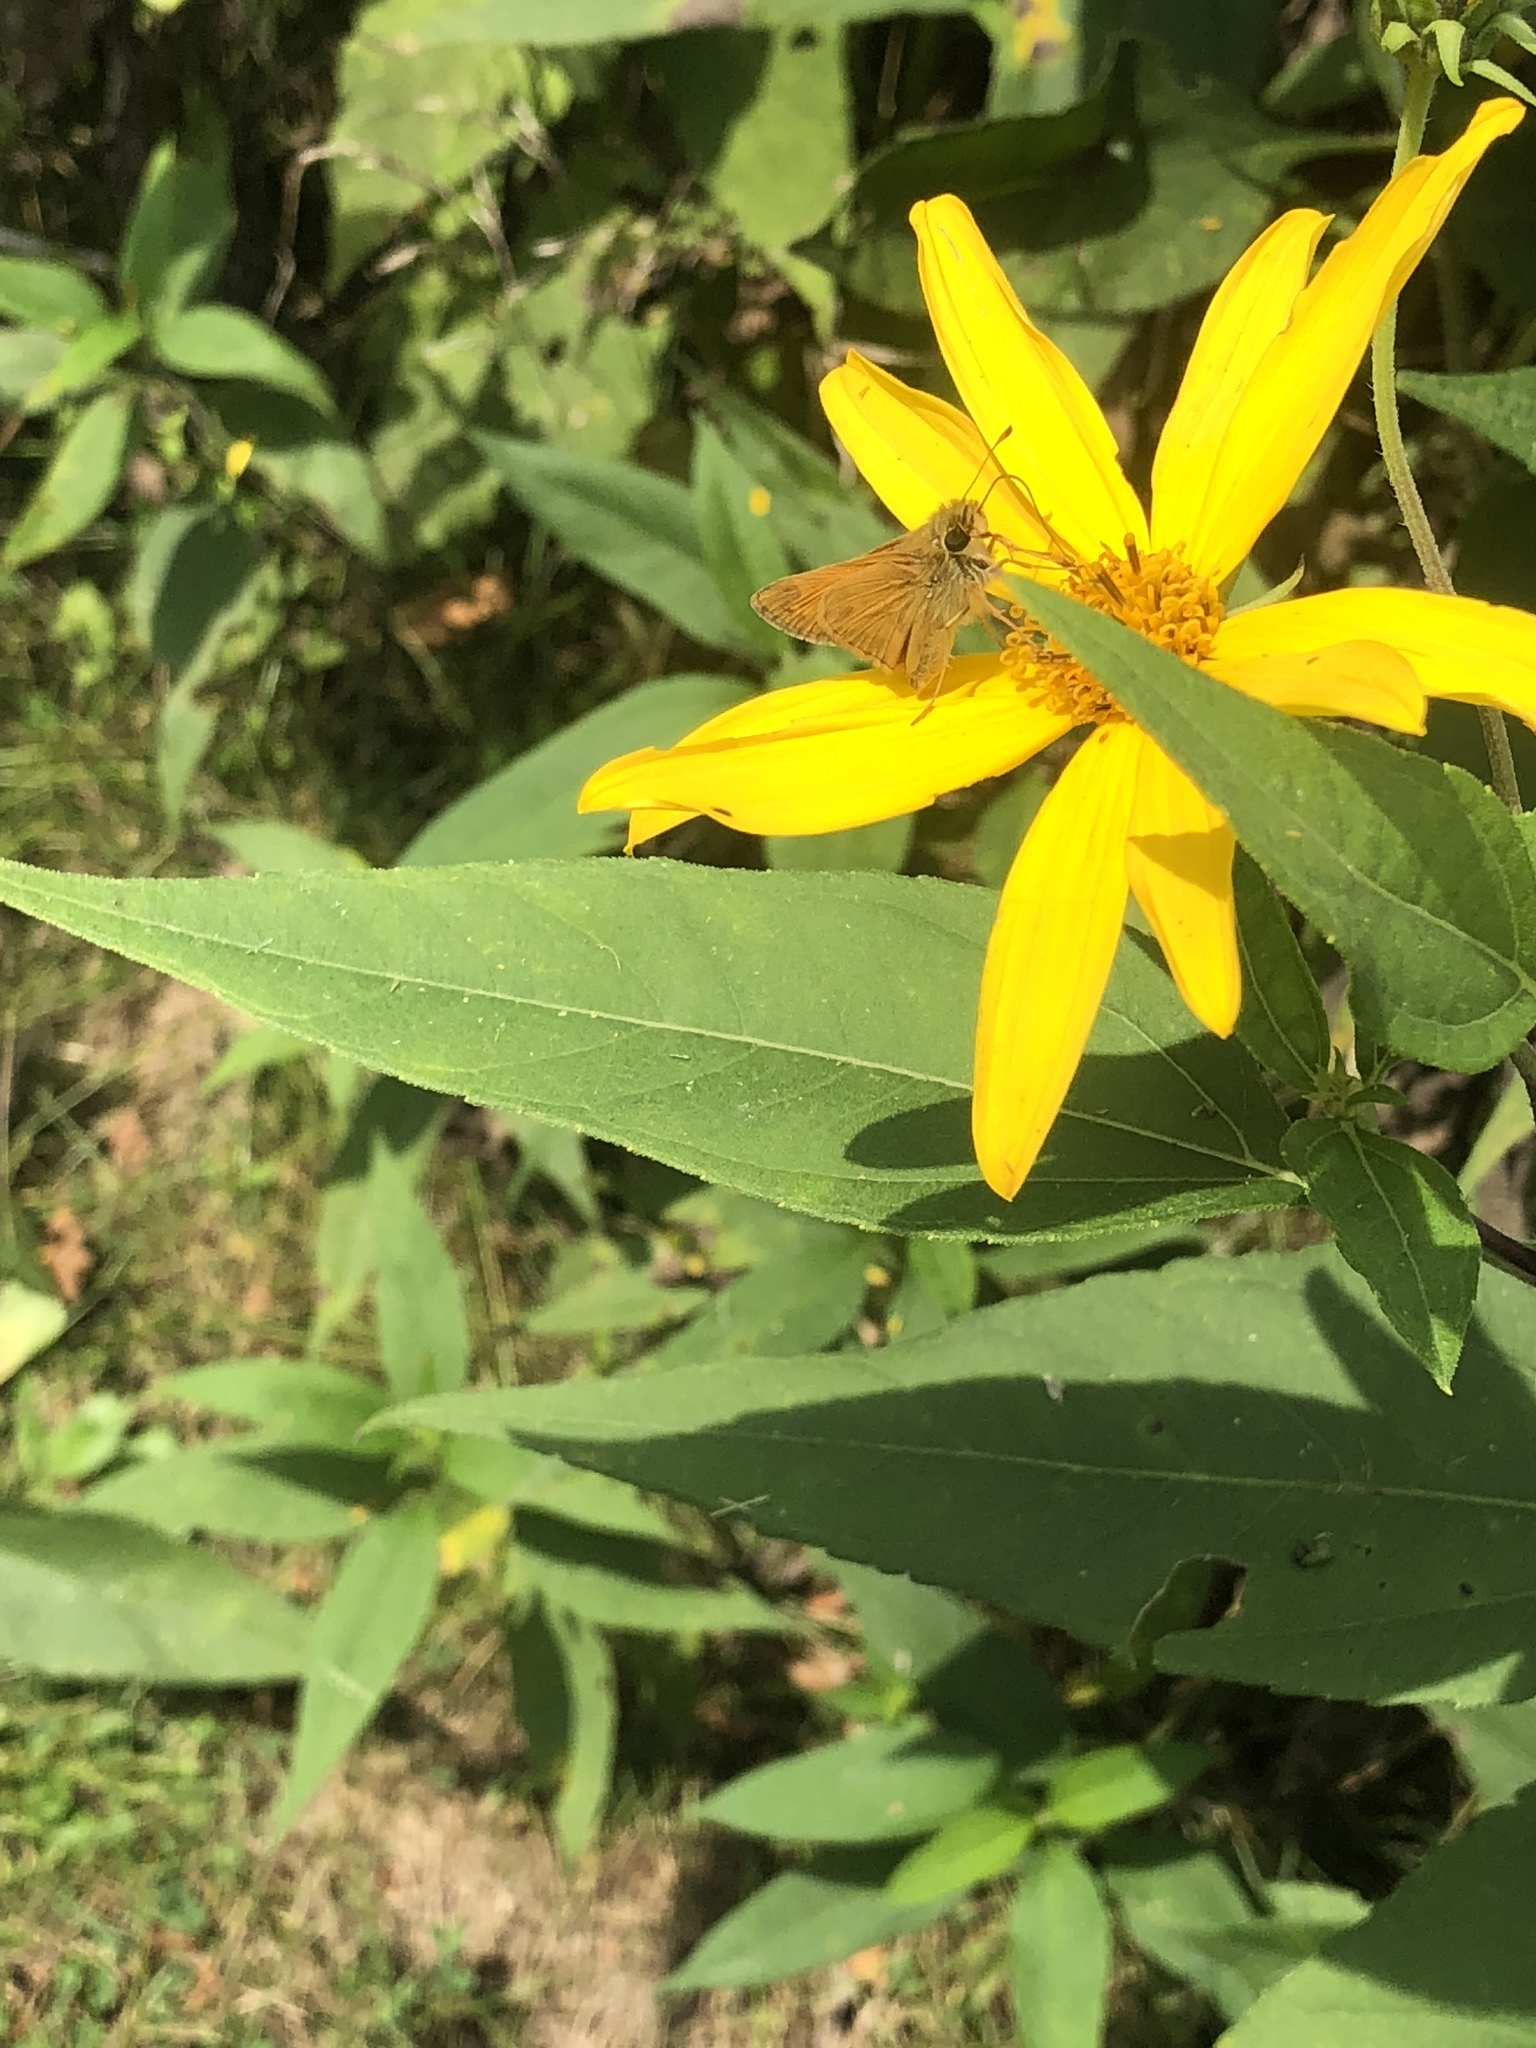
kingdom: Animalia
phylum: Arthropoda
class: Insecta
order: Lepidoptera
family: Hesperiidae
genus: Atalopedes
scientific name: Atalopedes
